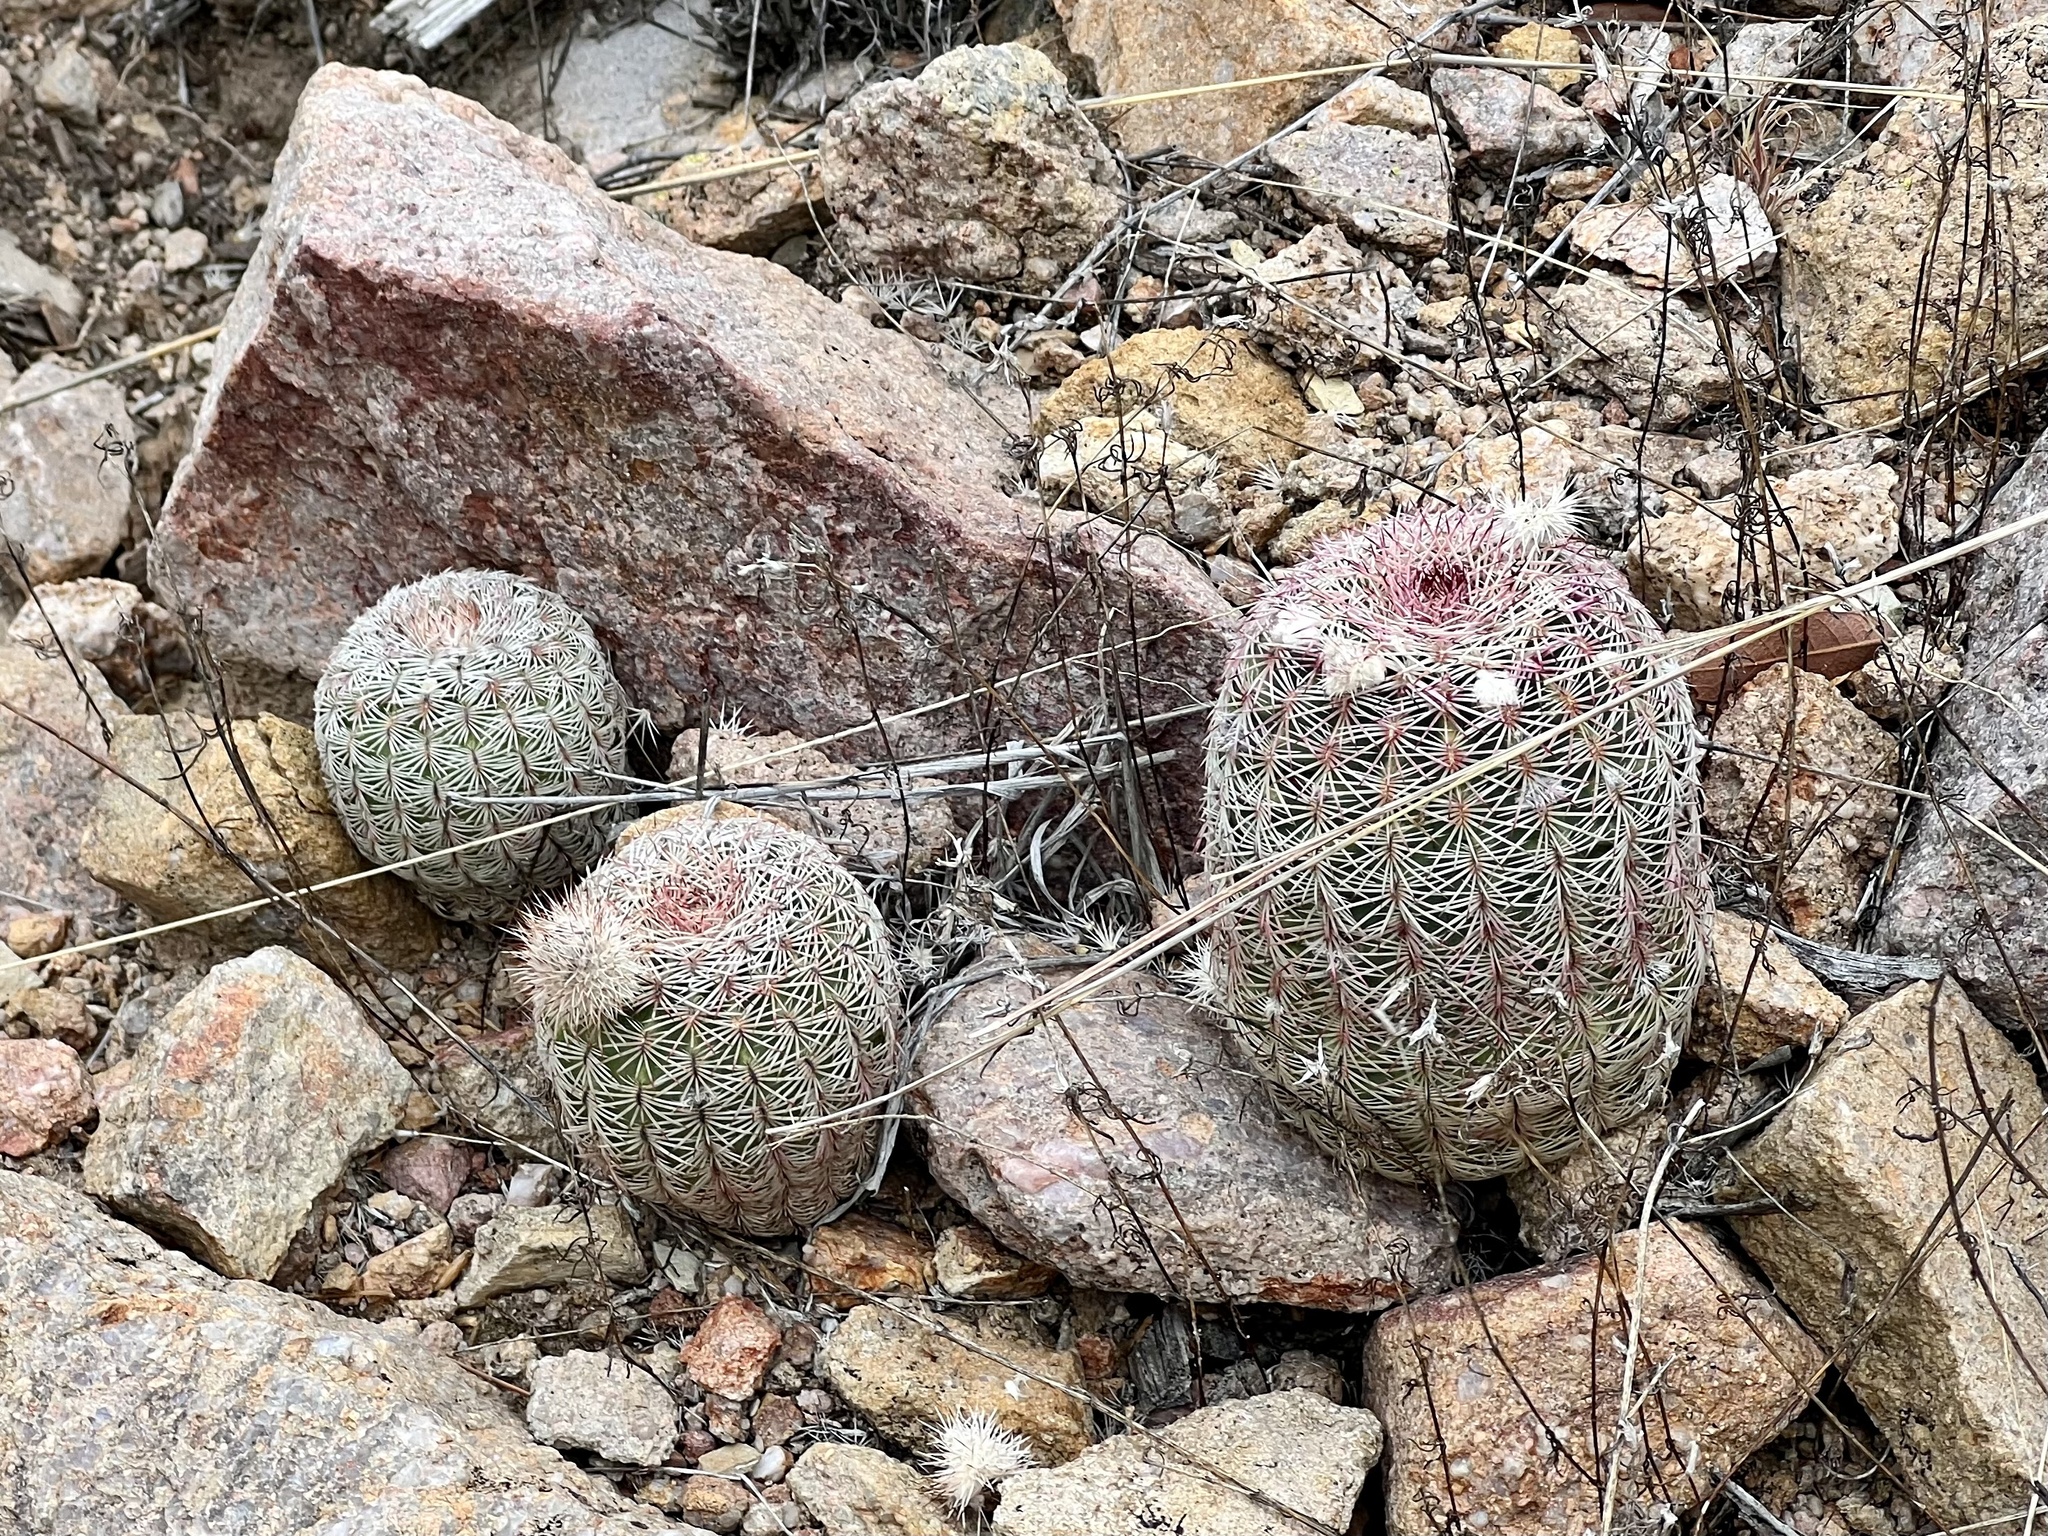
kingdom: Plantae
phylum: Tracheophyta
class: Magnoliopsida
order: Caryophyllales
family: Cactaceae
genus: Echinocereus
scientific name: Echinocereus rigidissimus
